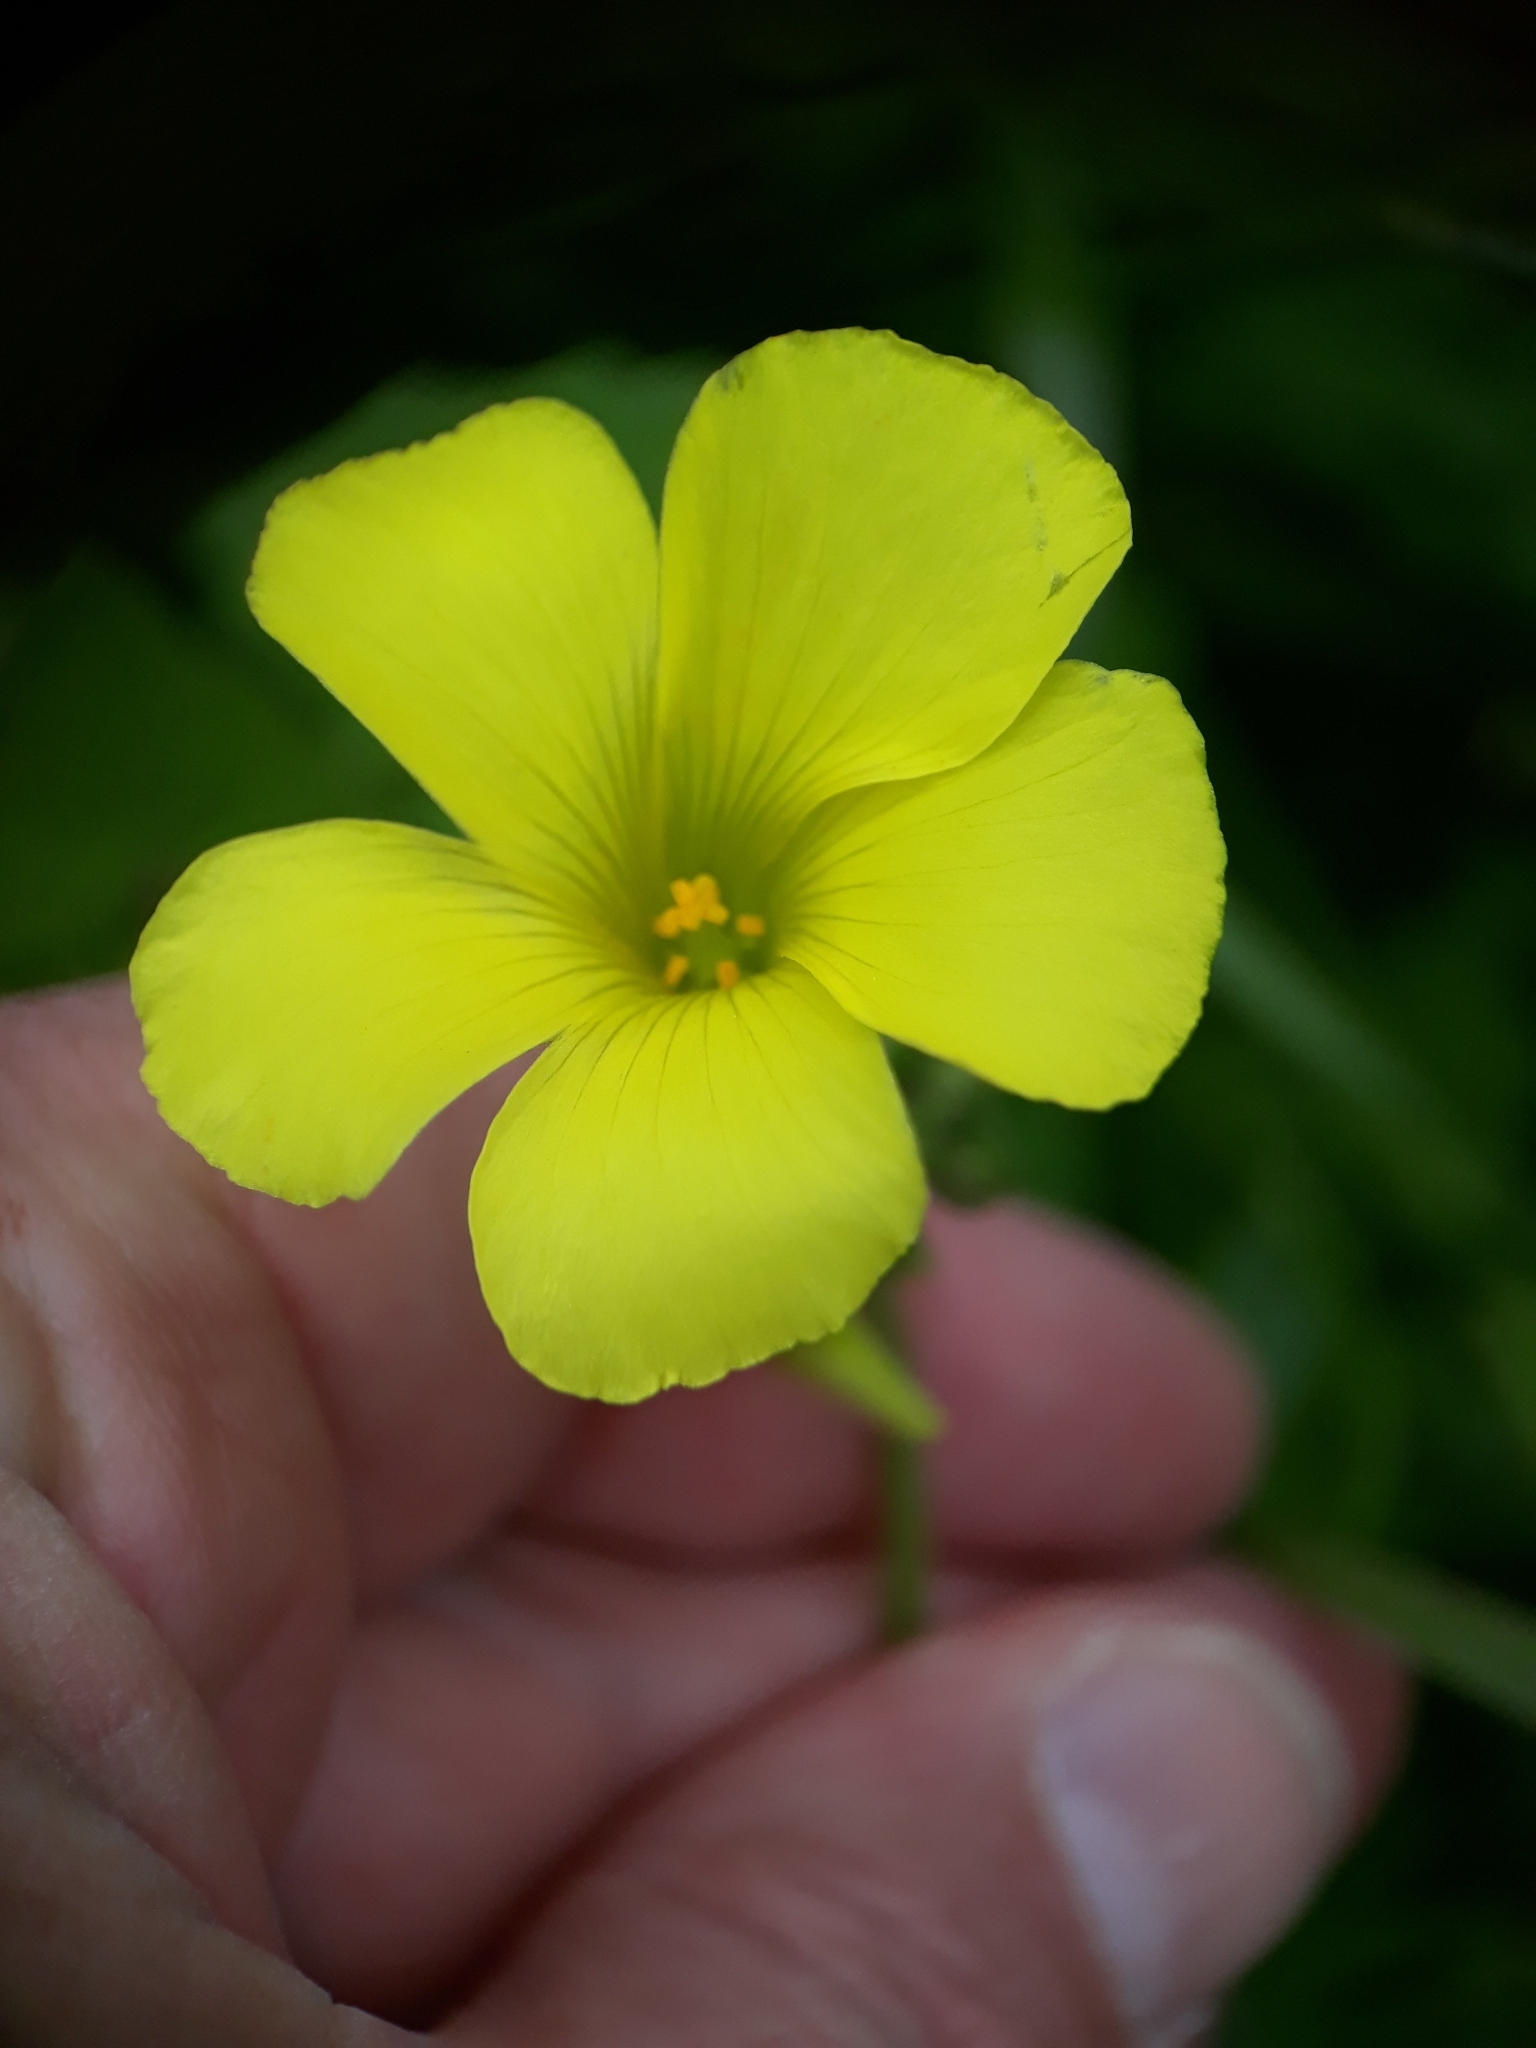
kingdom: Plantae
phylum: Tracheophyta
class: Magnoliopsida
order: Oxalidales
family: Oxalidaceae
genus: Oxalis
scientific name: Oxalis pes-caprae
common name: Bermuda-buttercup
